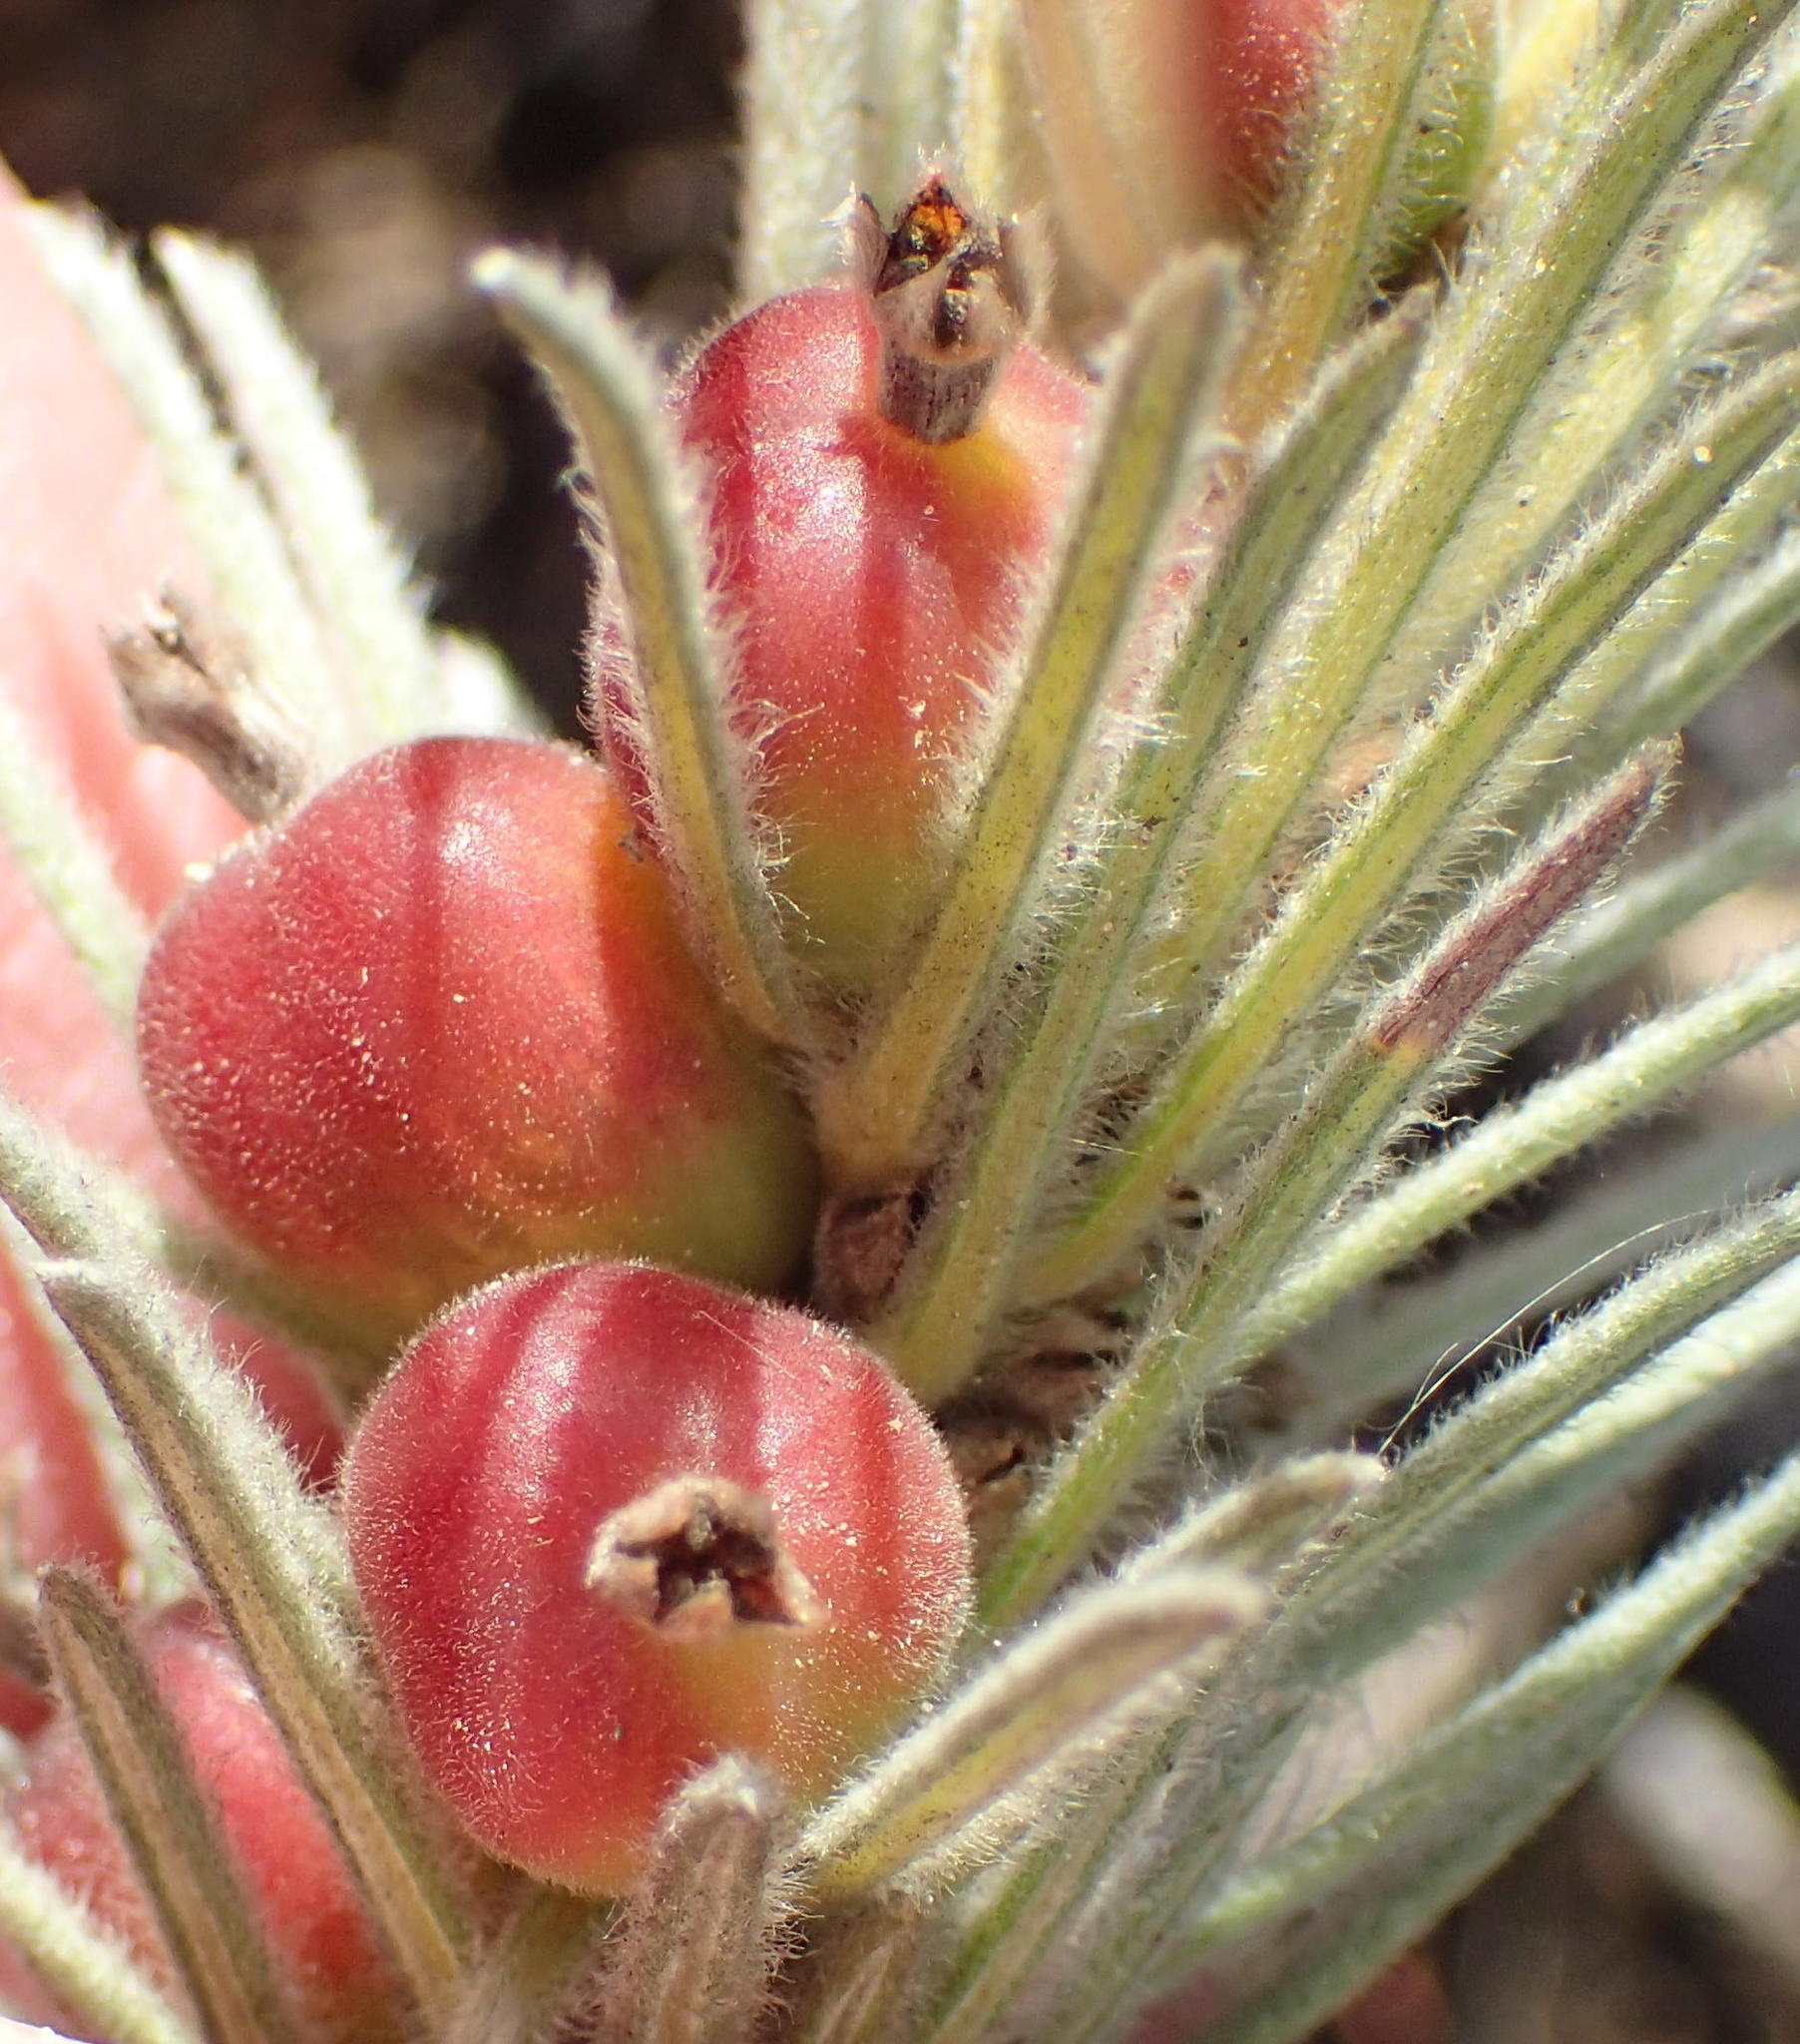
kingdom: Plantae
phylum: Tracheophyta
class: Magnoliopsida
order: Rosales
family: Rhamnaceae
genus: Phylica
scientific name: Phylica velutina
